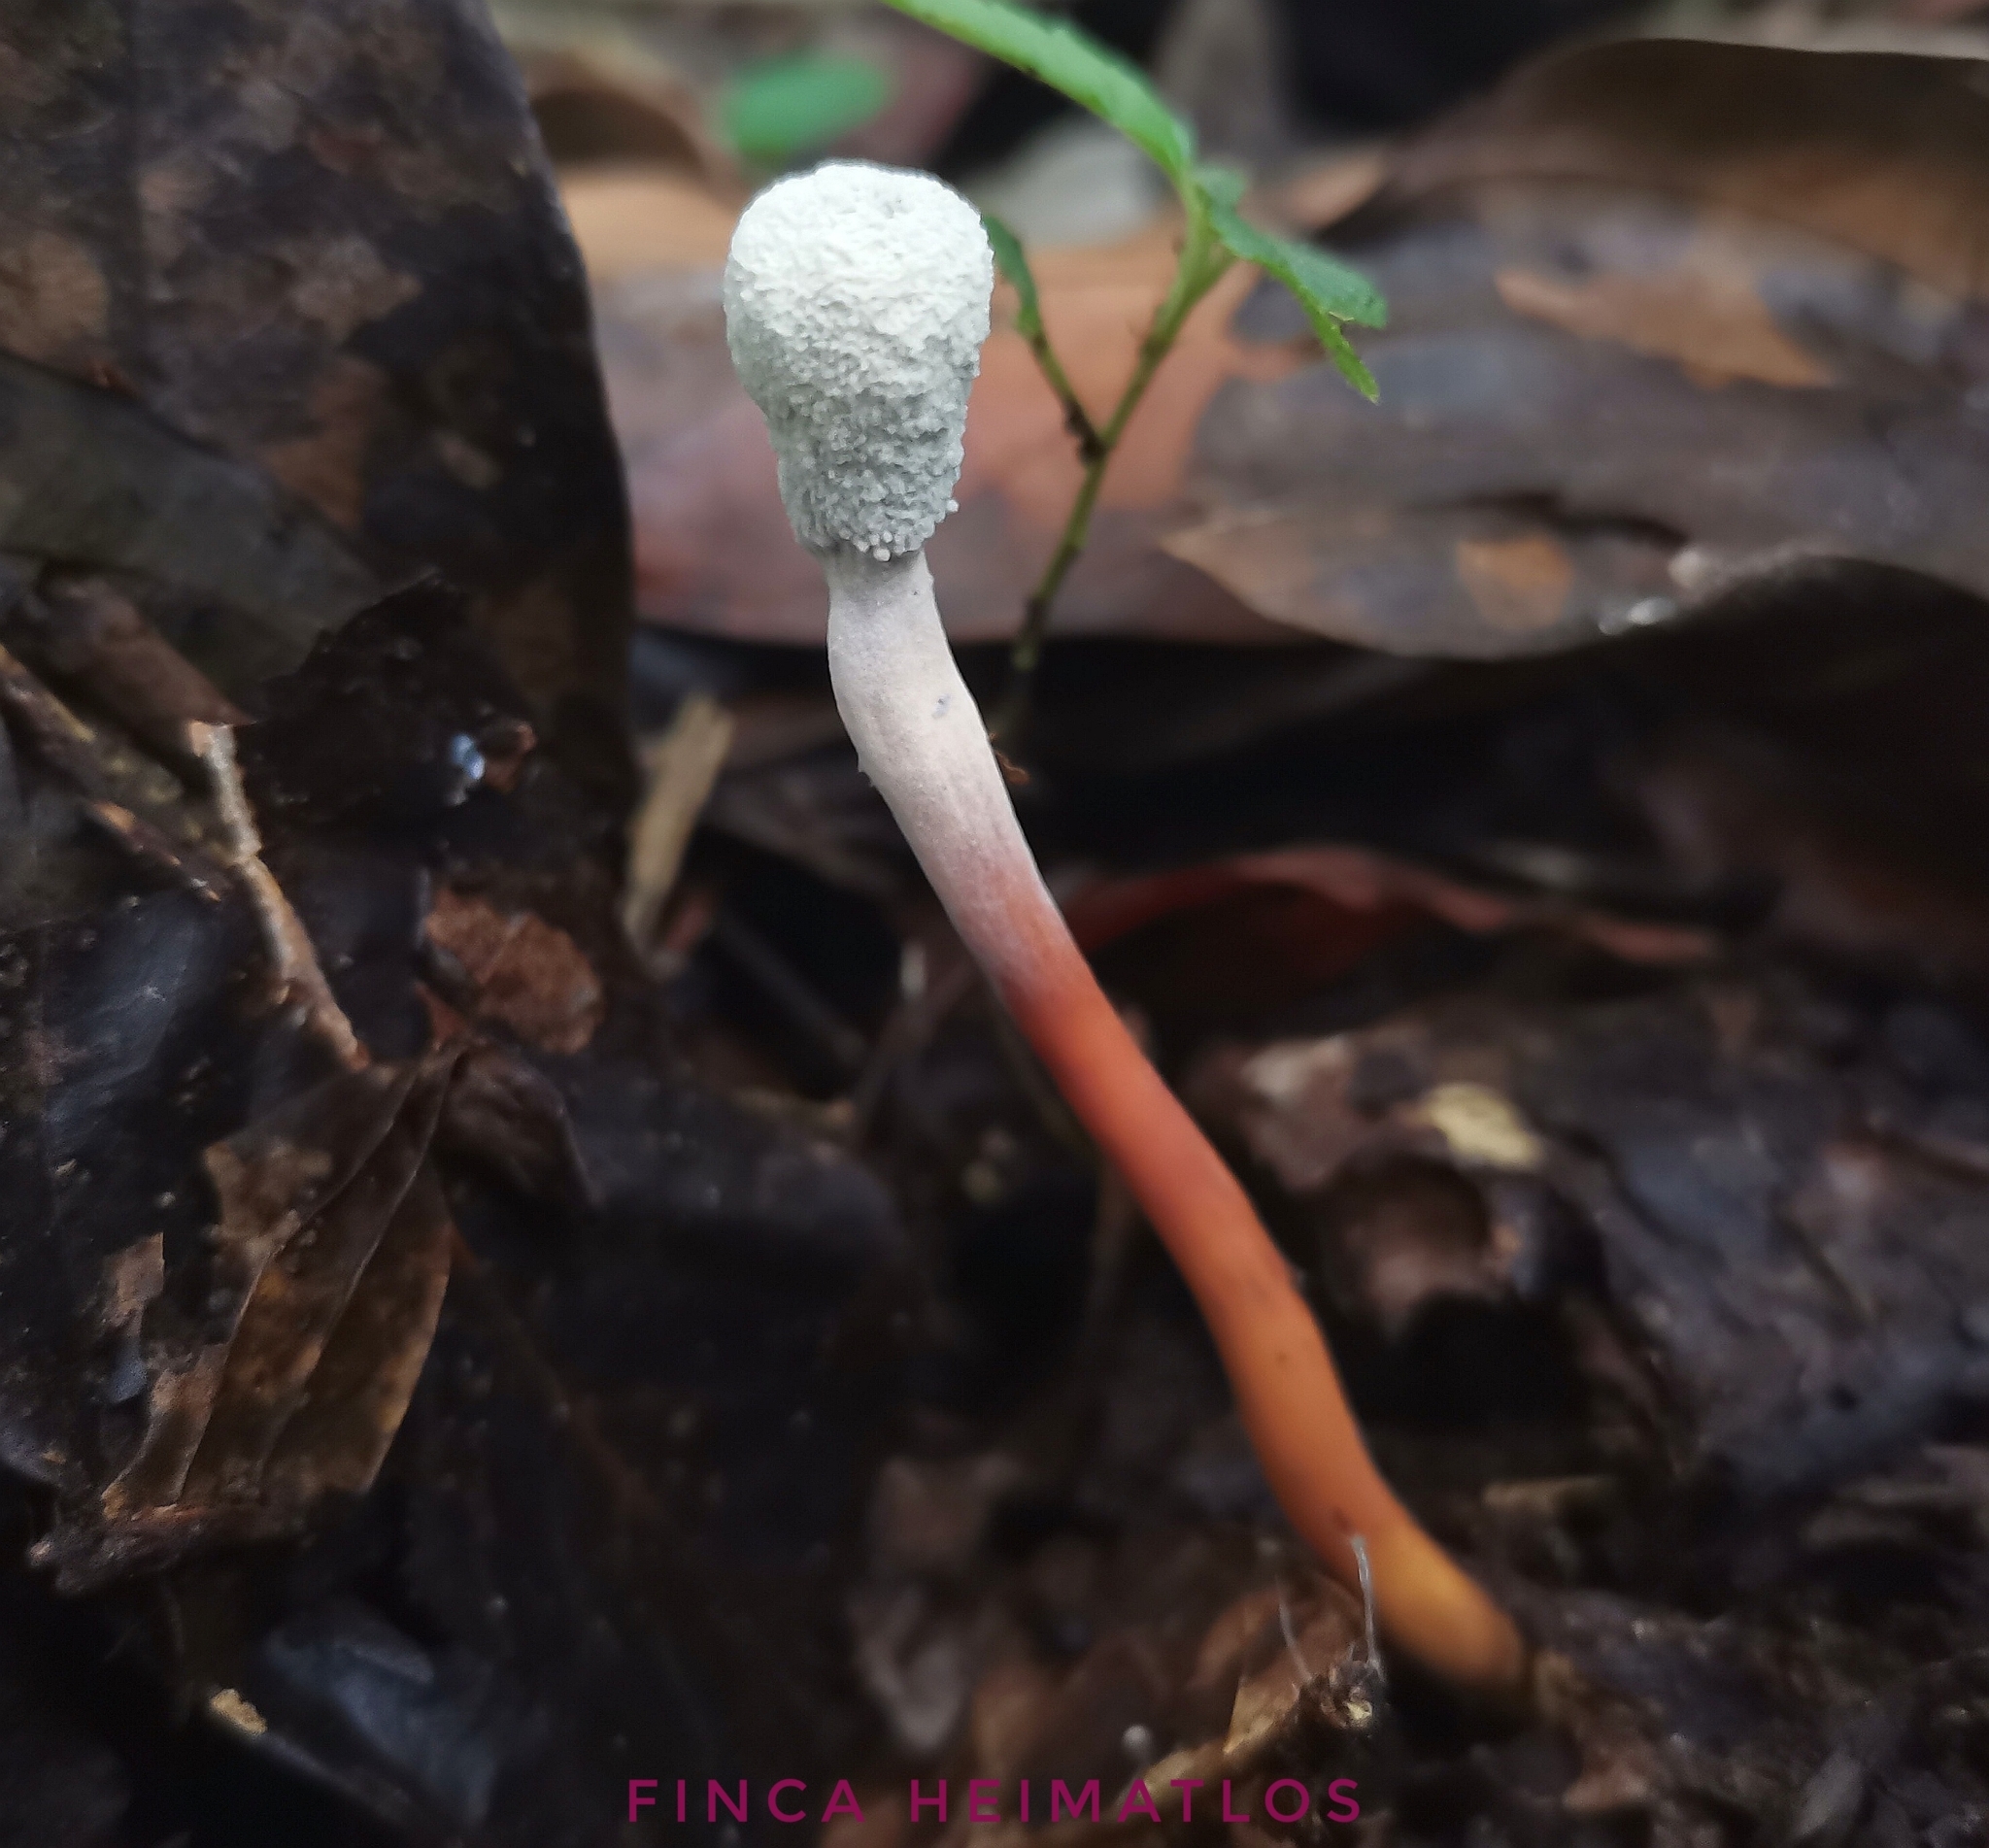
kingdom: Fungi
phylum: Ascomycota
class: Sordariomycetes
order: Hypocreales
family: Ophiocordycipitaceae
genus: Paraisaria
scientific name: Paraisaria gracilioides
